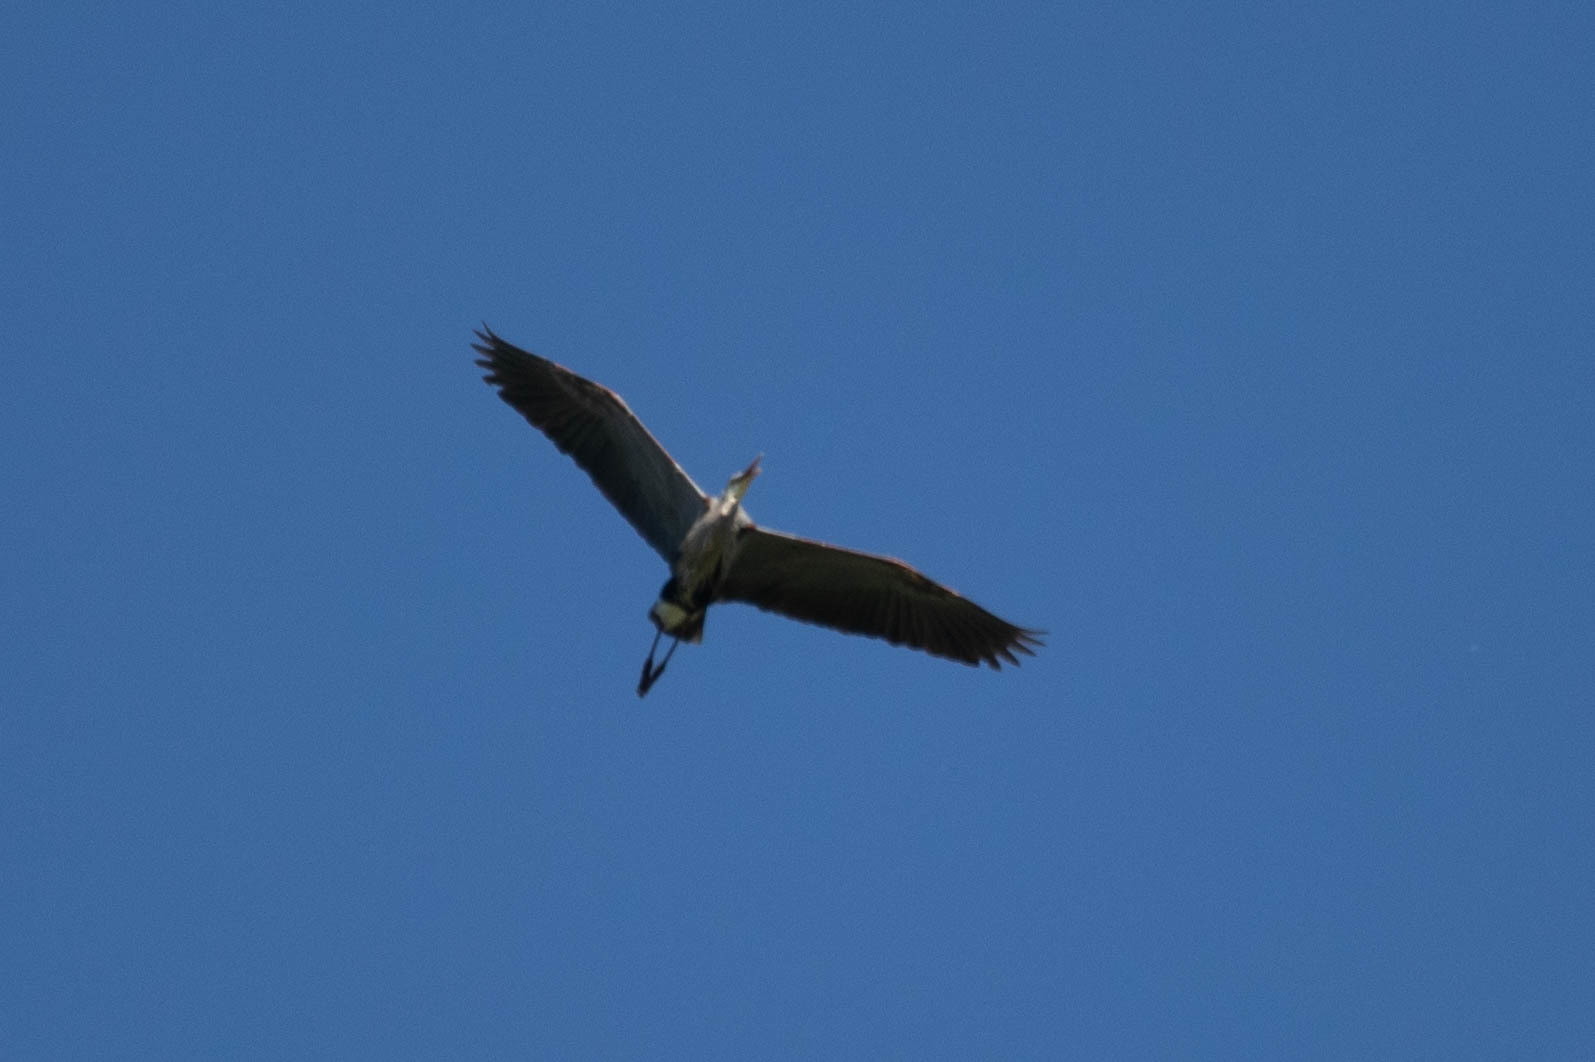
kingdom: Animalia
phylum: Chordata
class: Aves
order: Pelecaniformes
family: Ardeidae
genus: Ardea
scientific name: Ardea herodias
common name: Great blue heron
